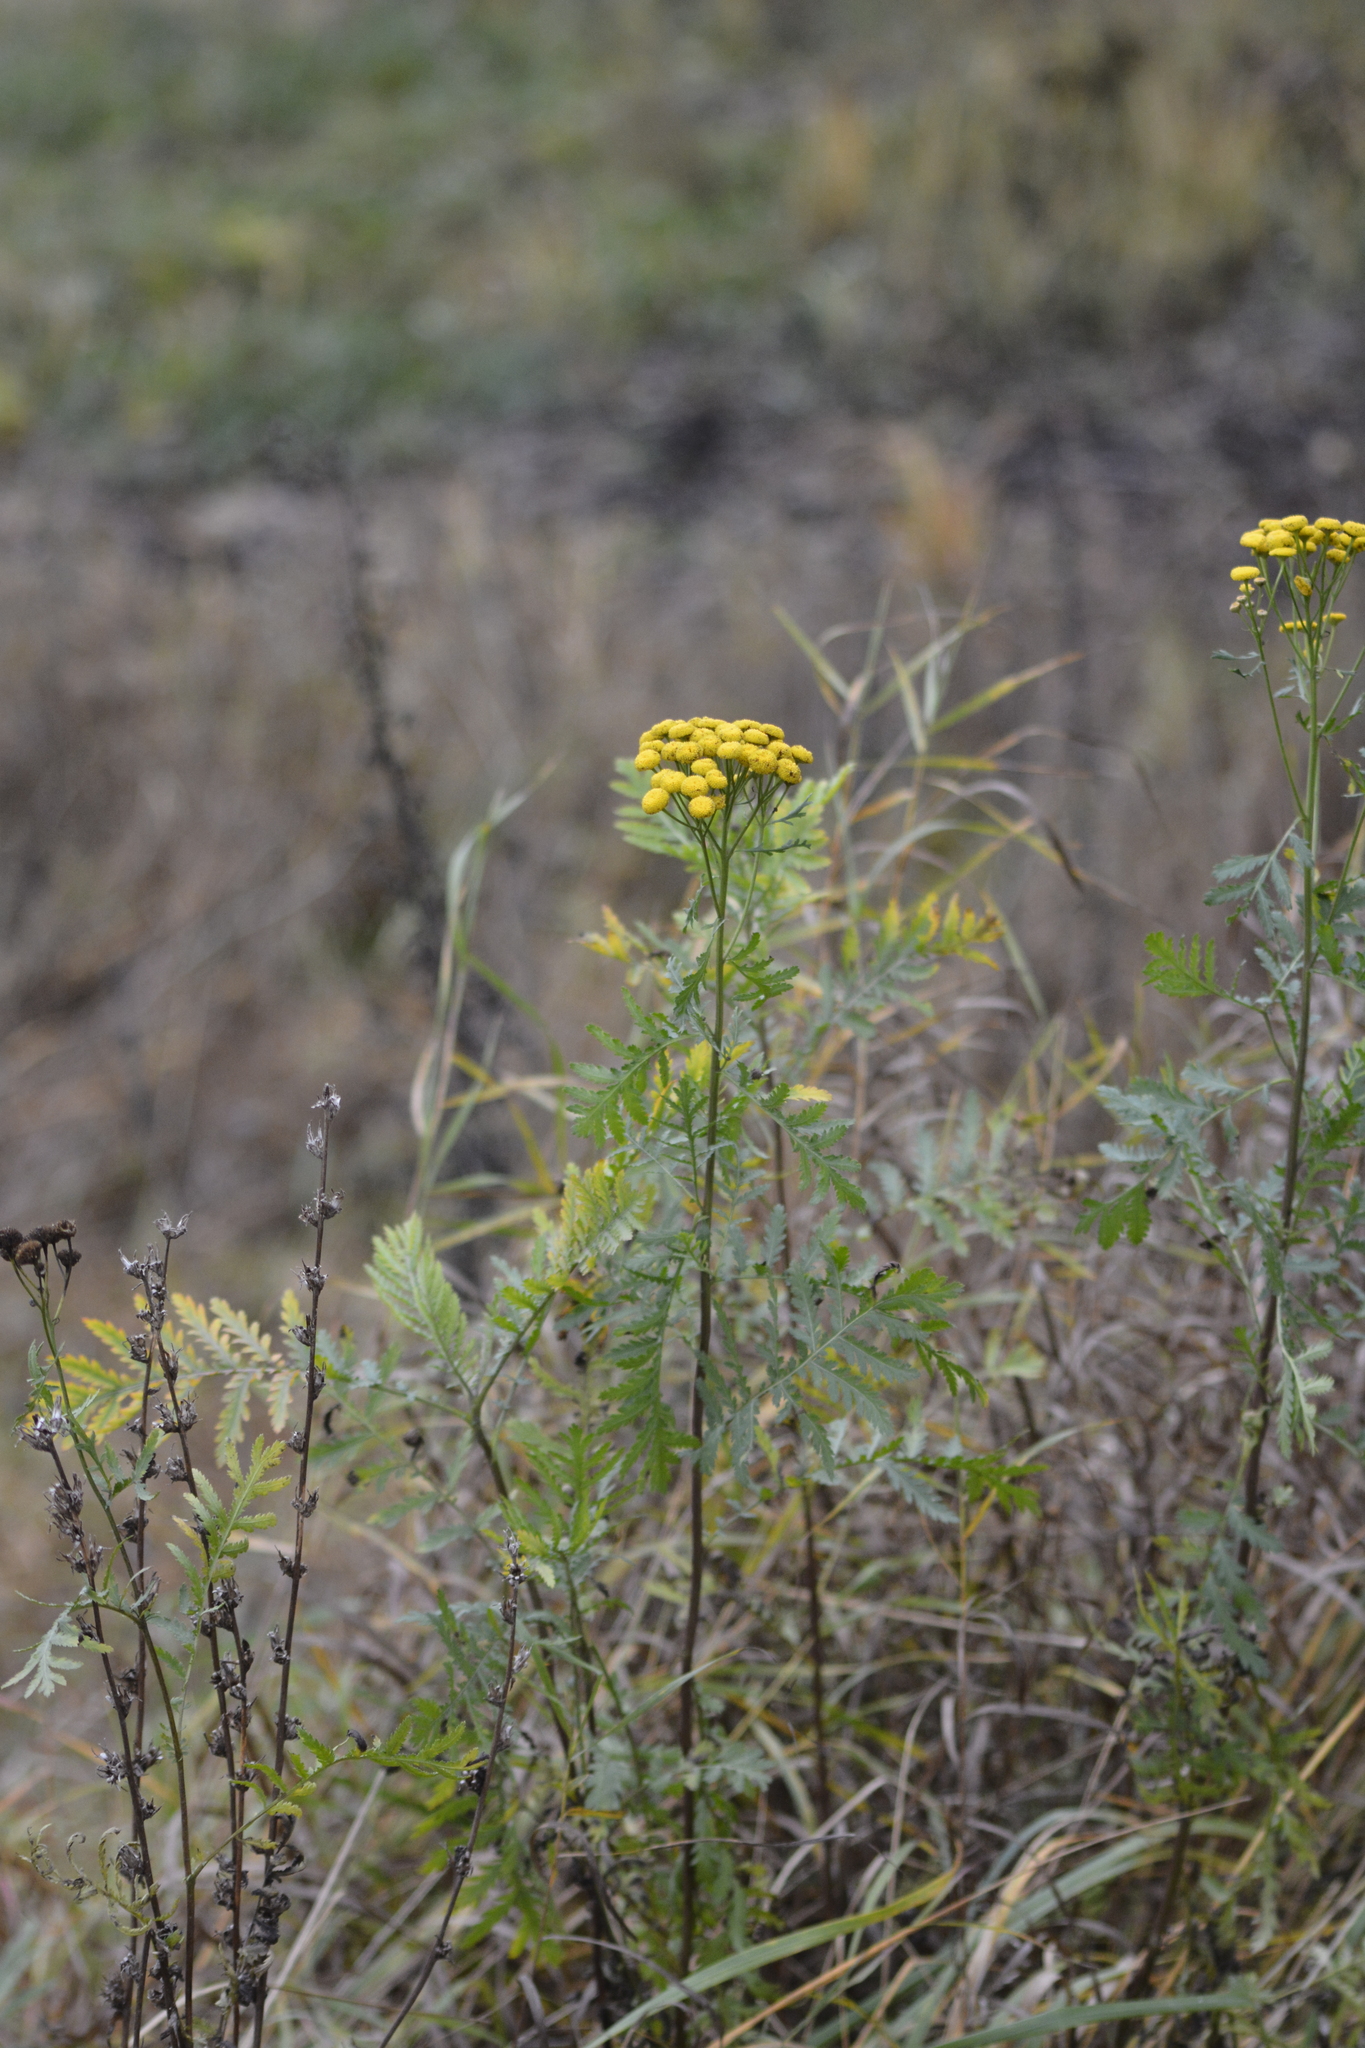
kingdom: Plantae
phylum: Tracheophyta
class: Magnoliopsida
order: Asterales
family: Asteraceae
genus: Tanacetum
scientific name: Tanacetum vulgare
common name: Common tansy
